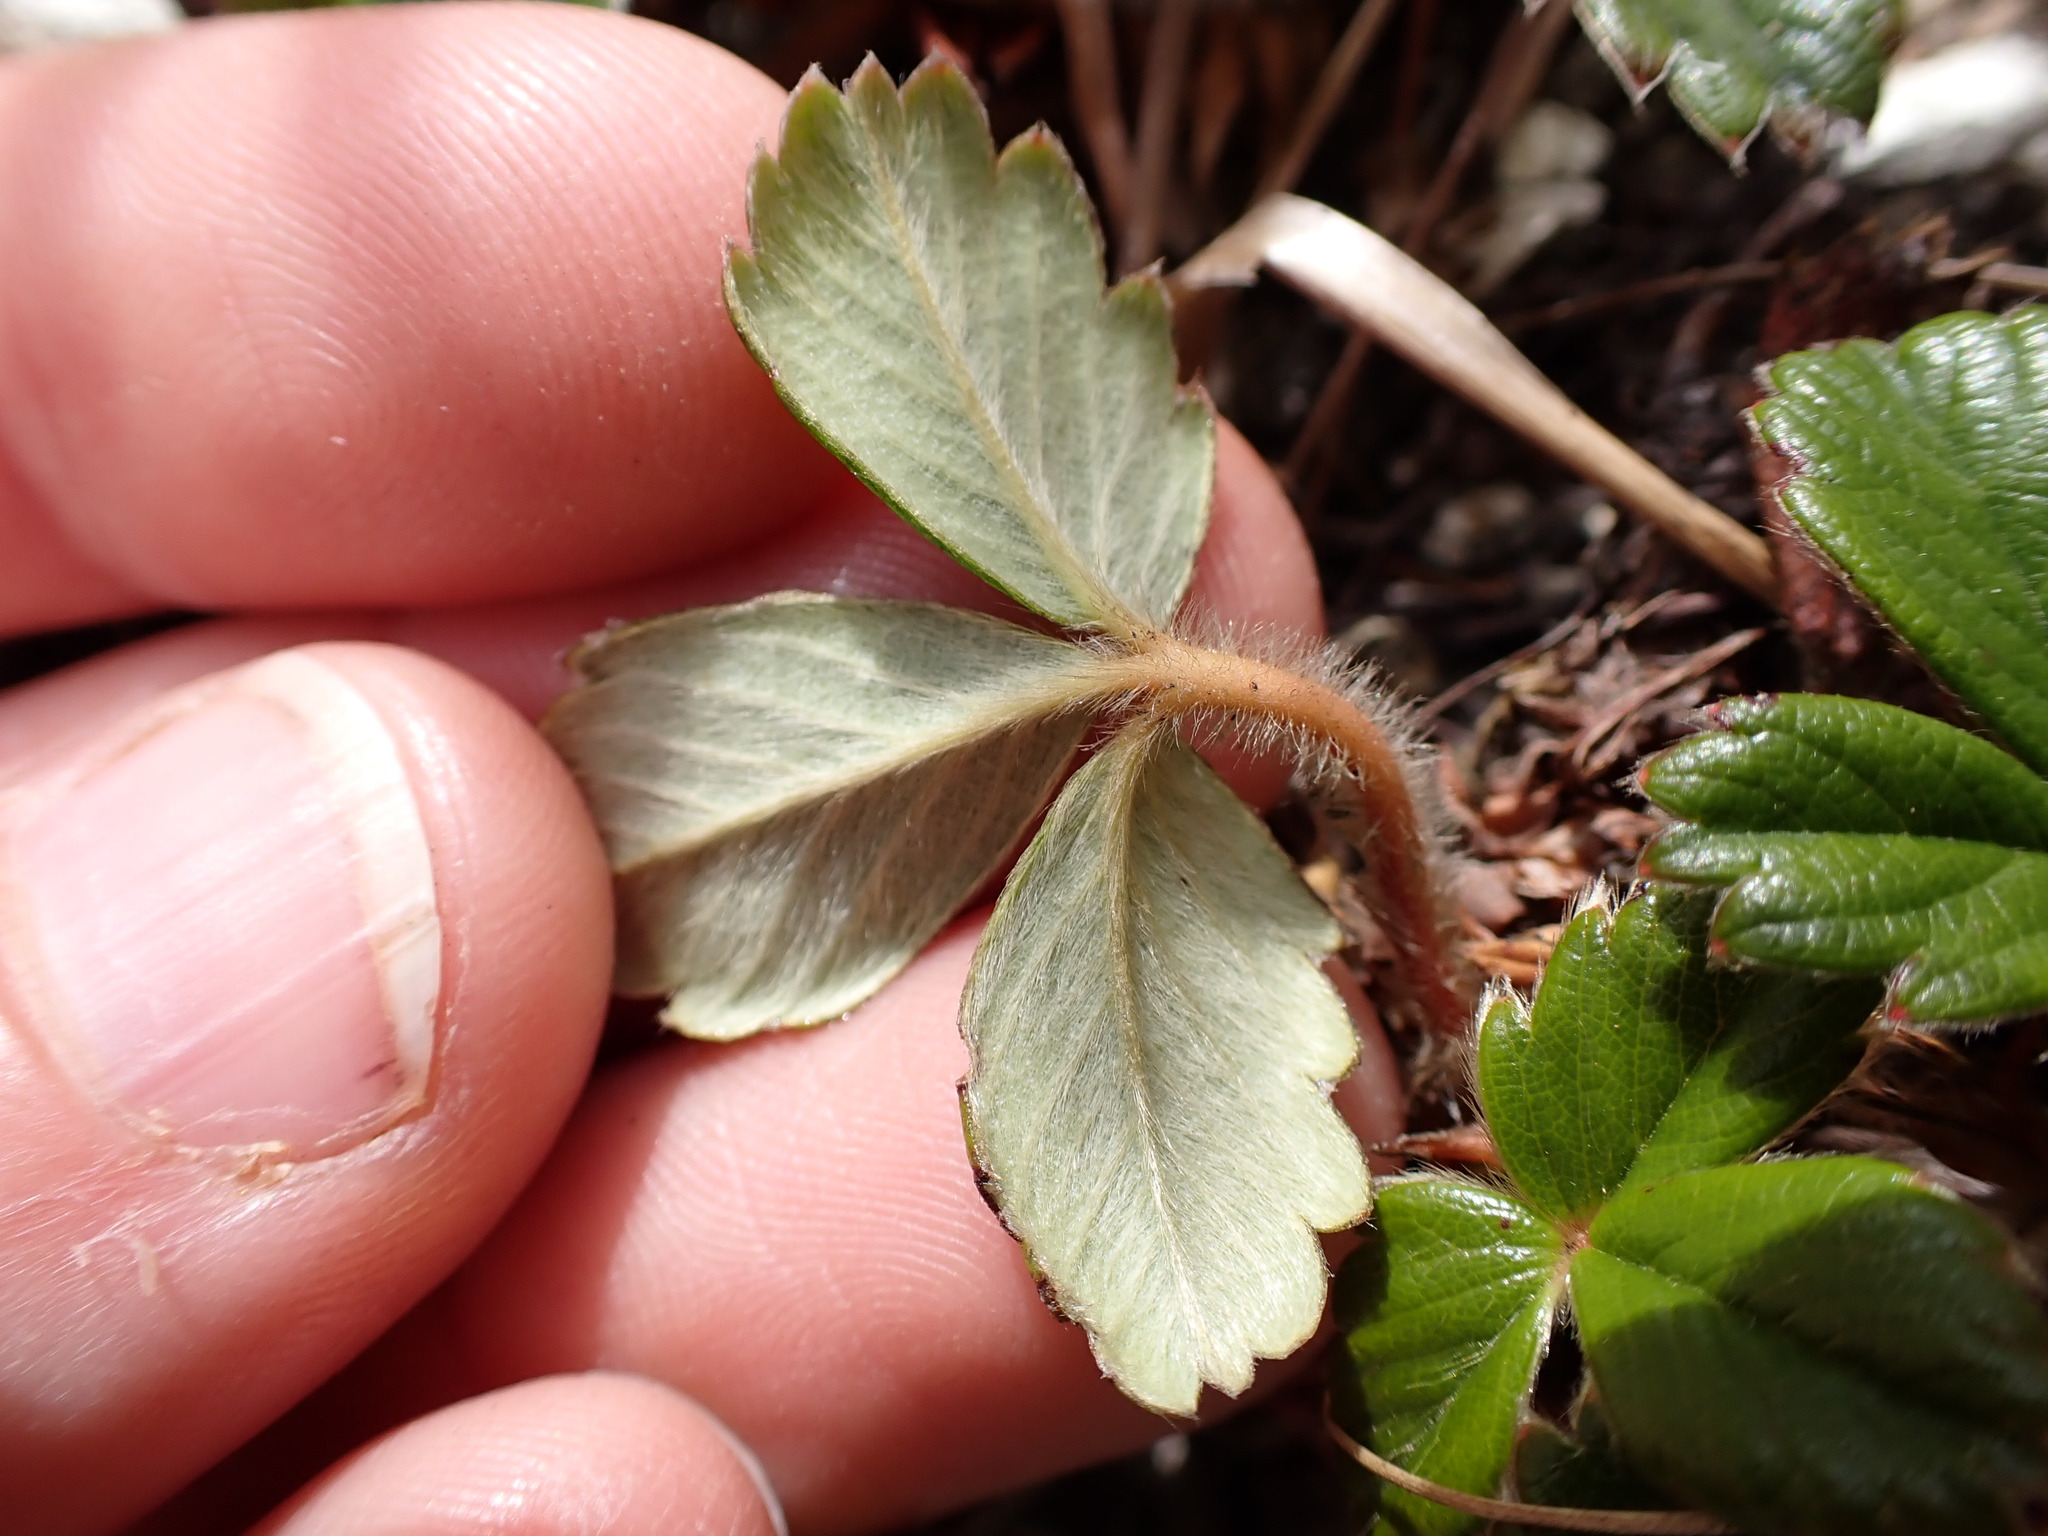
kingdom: Plantae
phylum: Tracheophyta
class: Magnoliopsida
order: Rosales
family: Rosaceae
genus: Fragaria
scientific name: Fragaria chiloensis
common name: Beach strawberry
